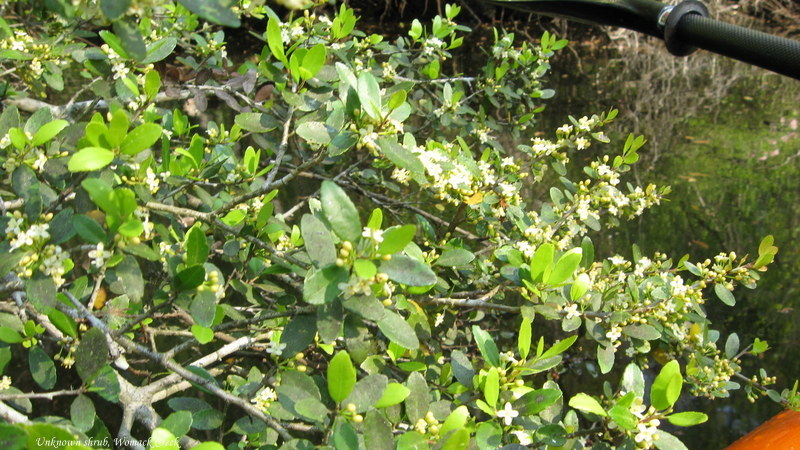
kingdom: Plantae
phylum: Tracheophyta
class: Magnoliopsida
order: Aquifoliales
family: Aquifoliaceae
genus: Ilex
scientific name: Ilex vomitoria
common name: Yaupon holly
